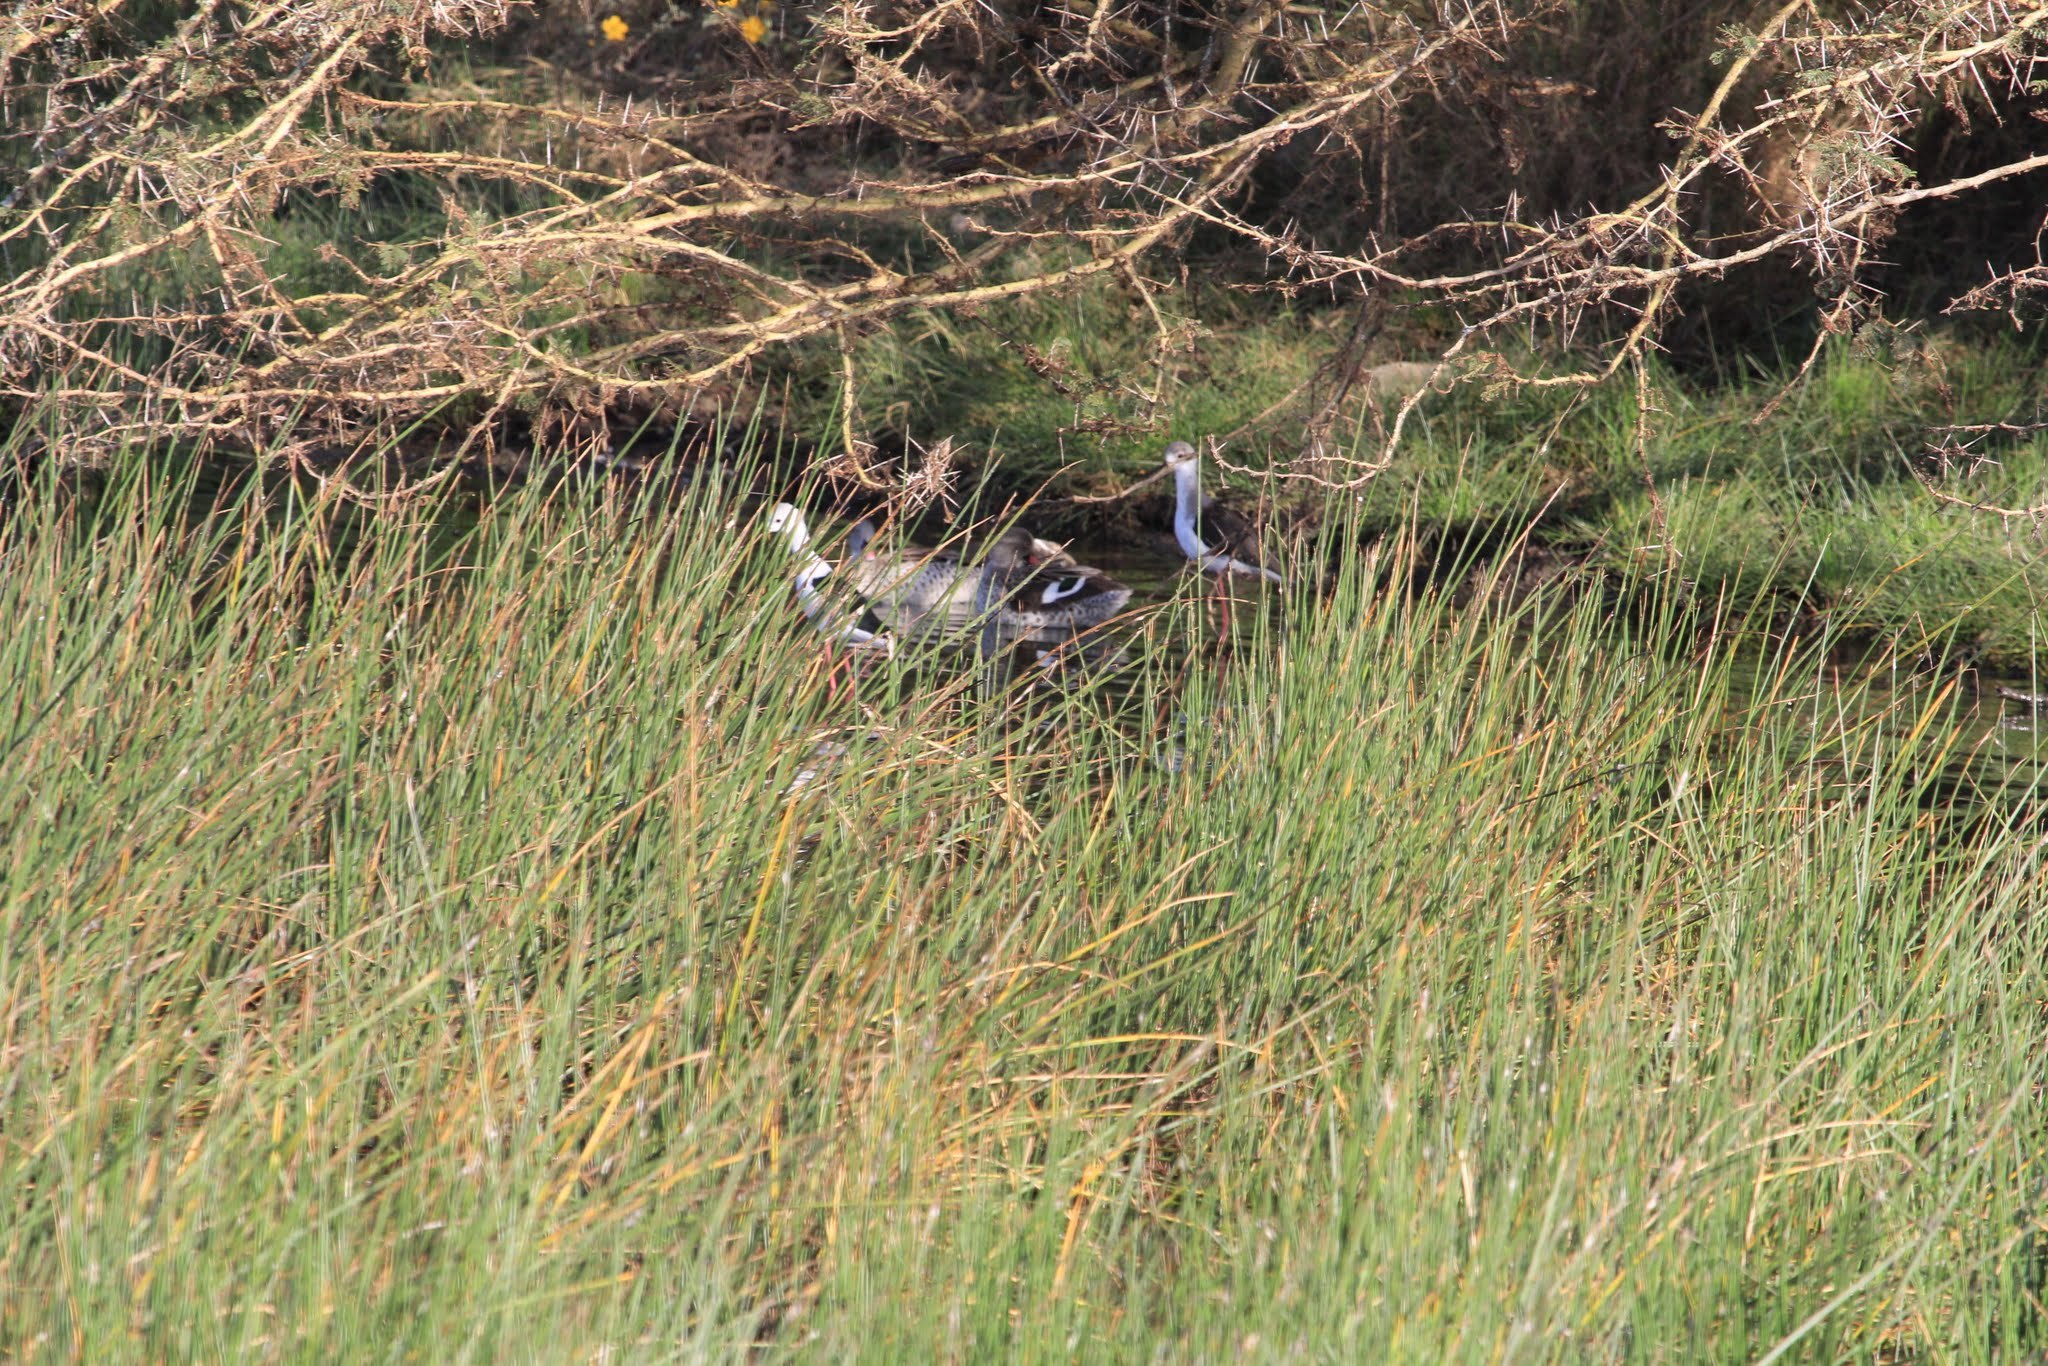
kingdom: Animalia
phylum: Chordata
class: Aves
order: Charadriiformes
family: Recurvirostridae
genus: Himantopus
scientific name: Himantopus himantopus
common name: Black-winged stilt
